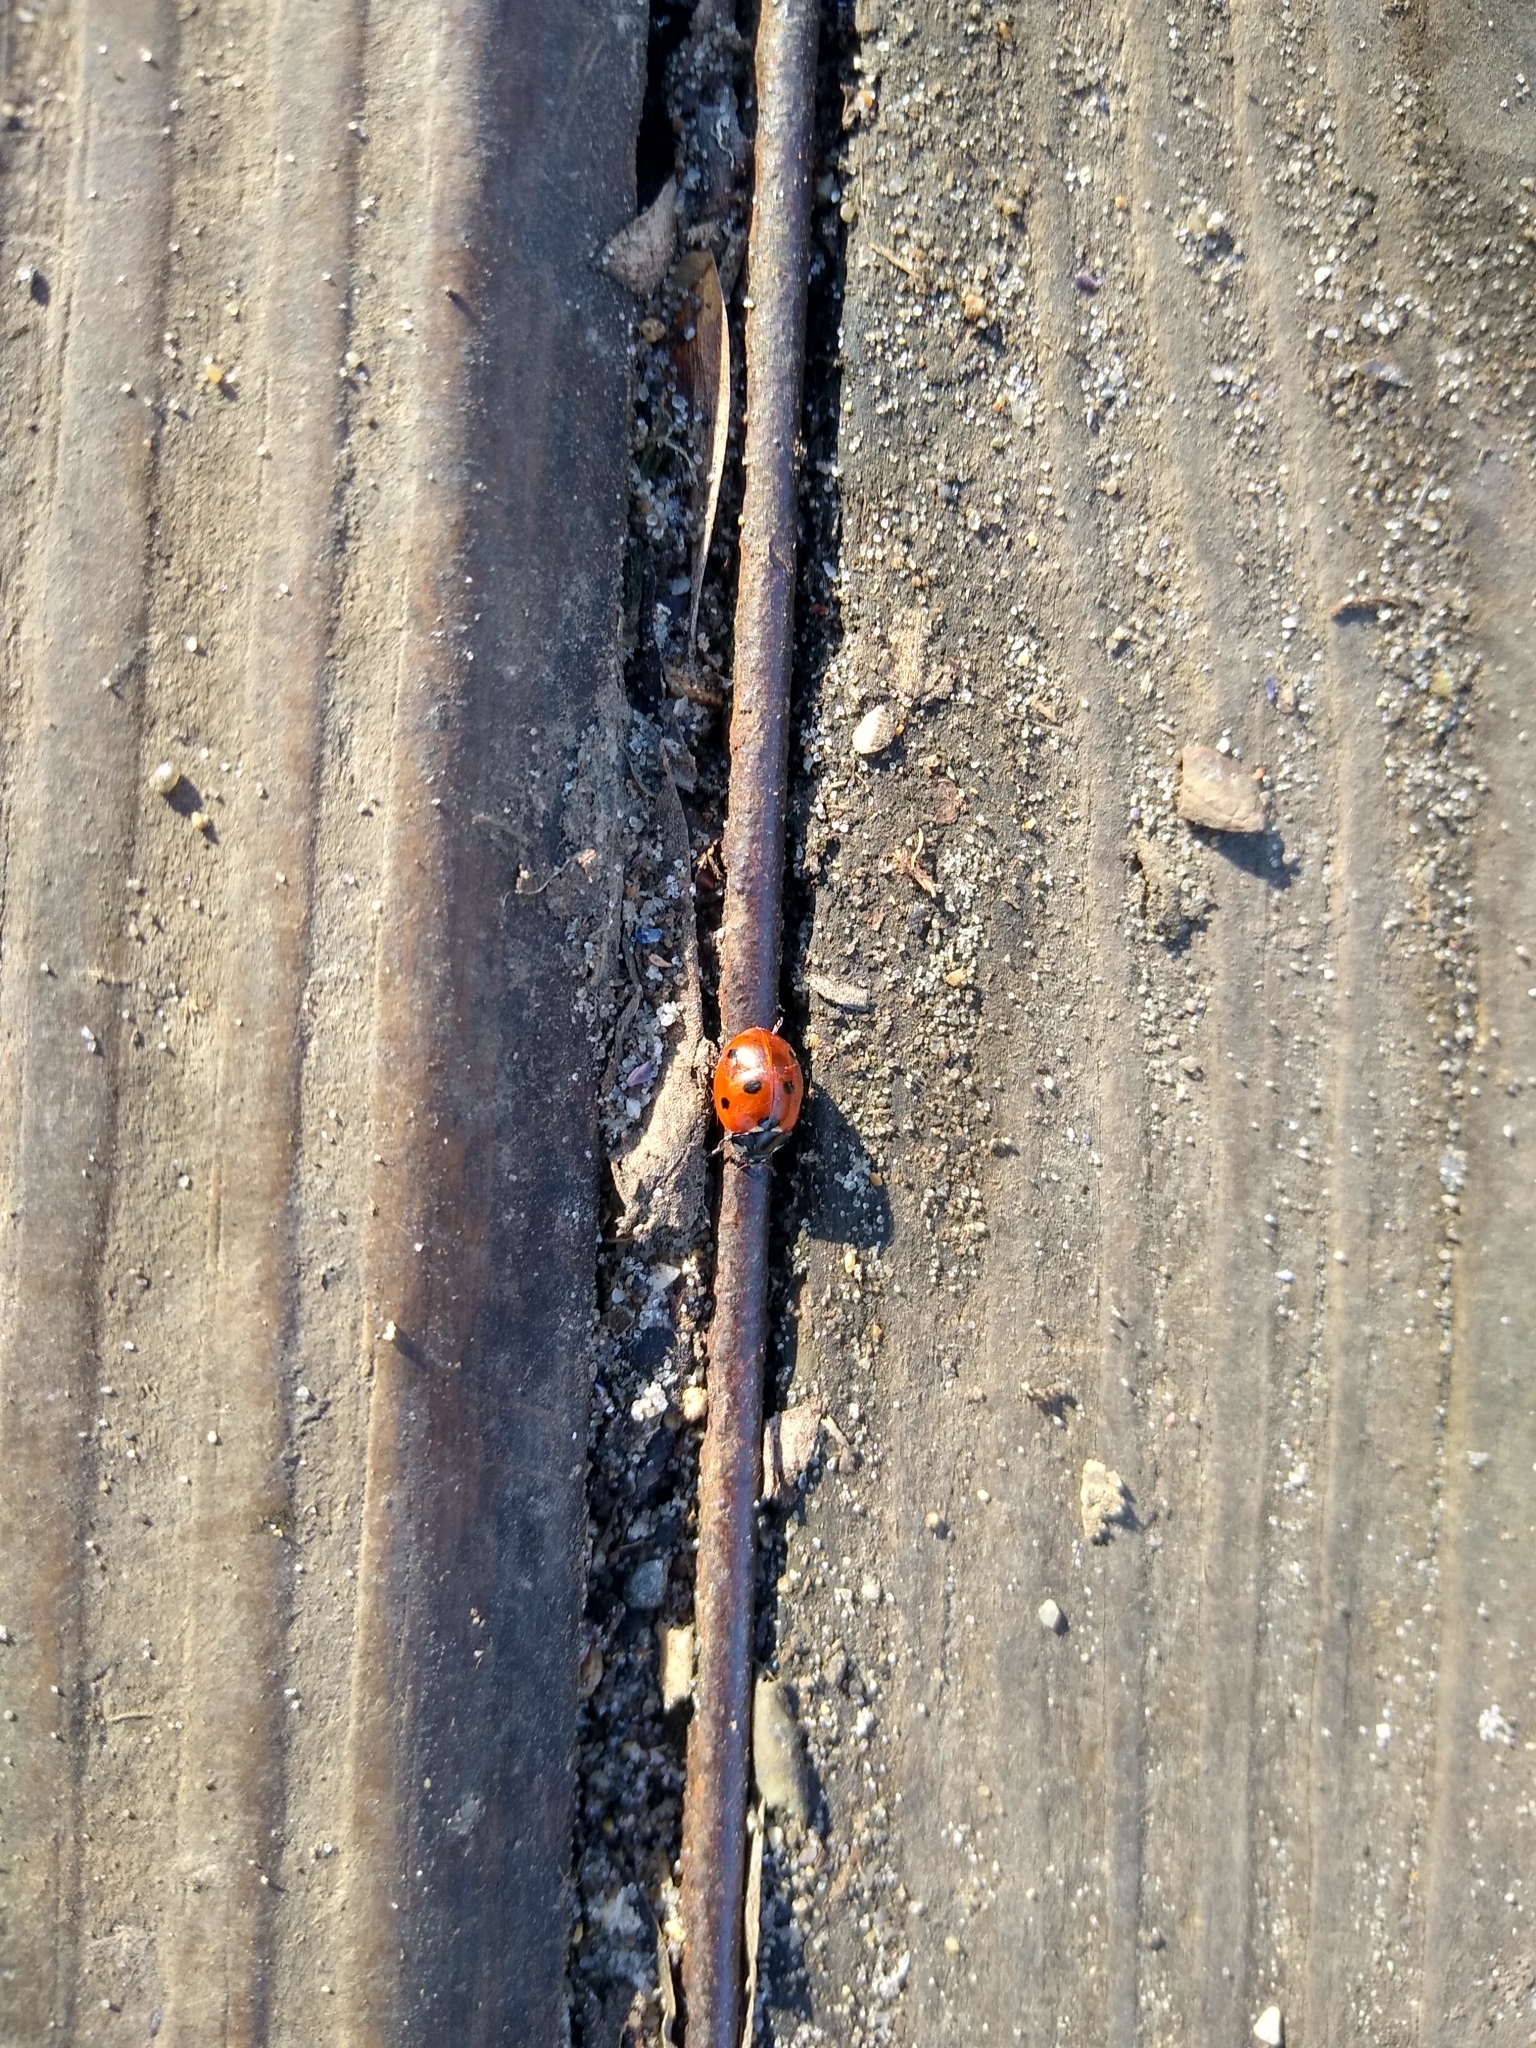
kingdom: Animalia
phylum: Arthropoda
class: Insecta
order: Coleoptera
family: Coccinellidae
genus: Coccinella
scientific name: Coccinella septempunctata
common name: Sevenspotted lady beetle
